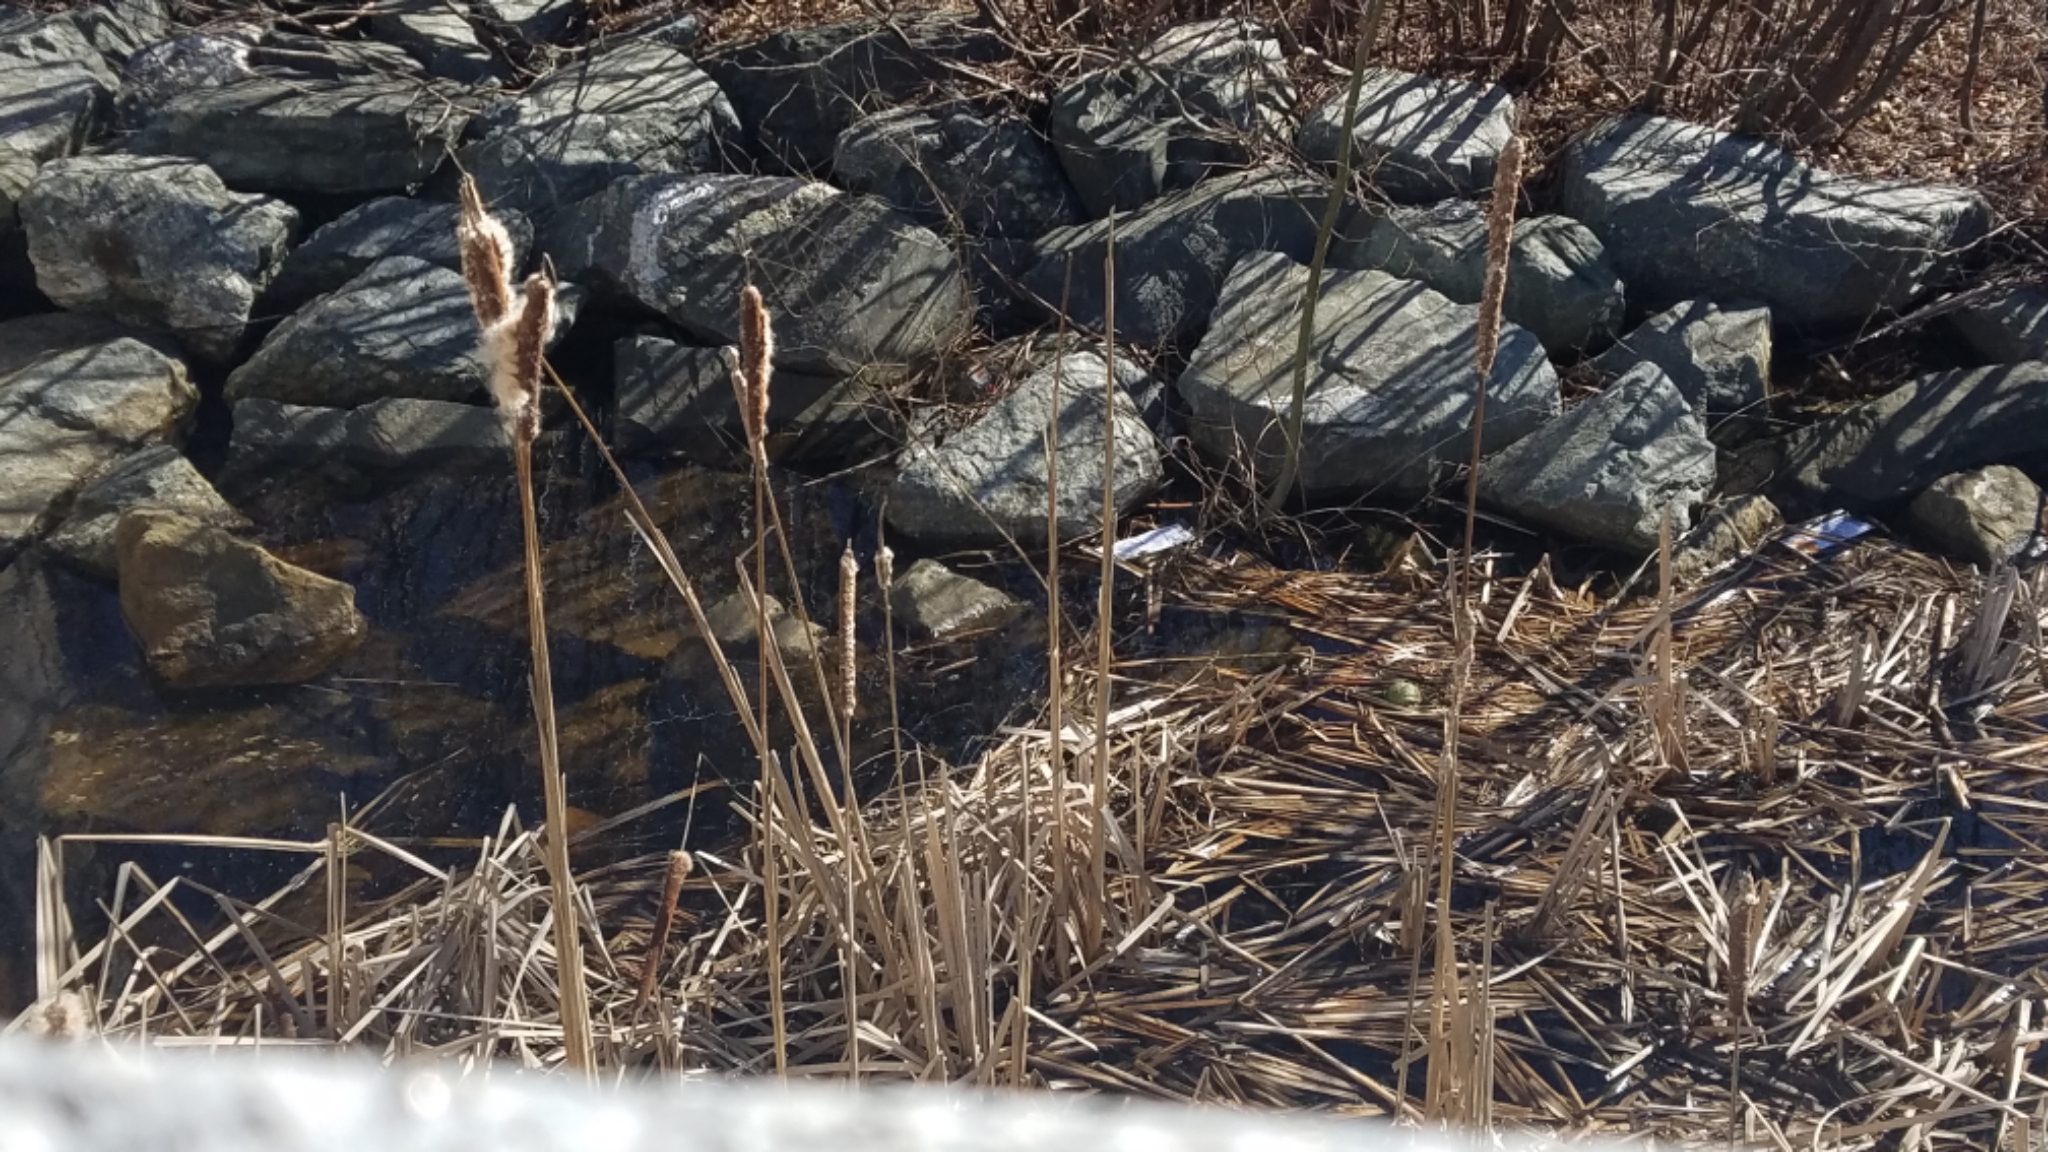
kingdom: Plantae
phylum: Tracheophyta
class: Liliopsida
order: Poales
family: Typhaceae
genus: Typha
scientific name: Typha
